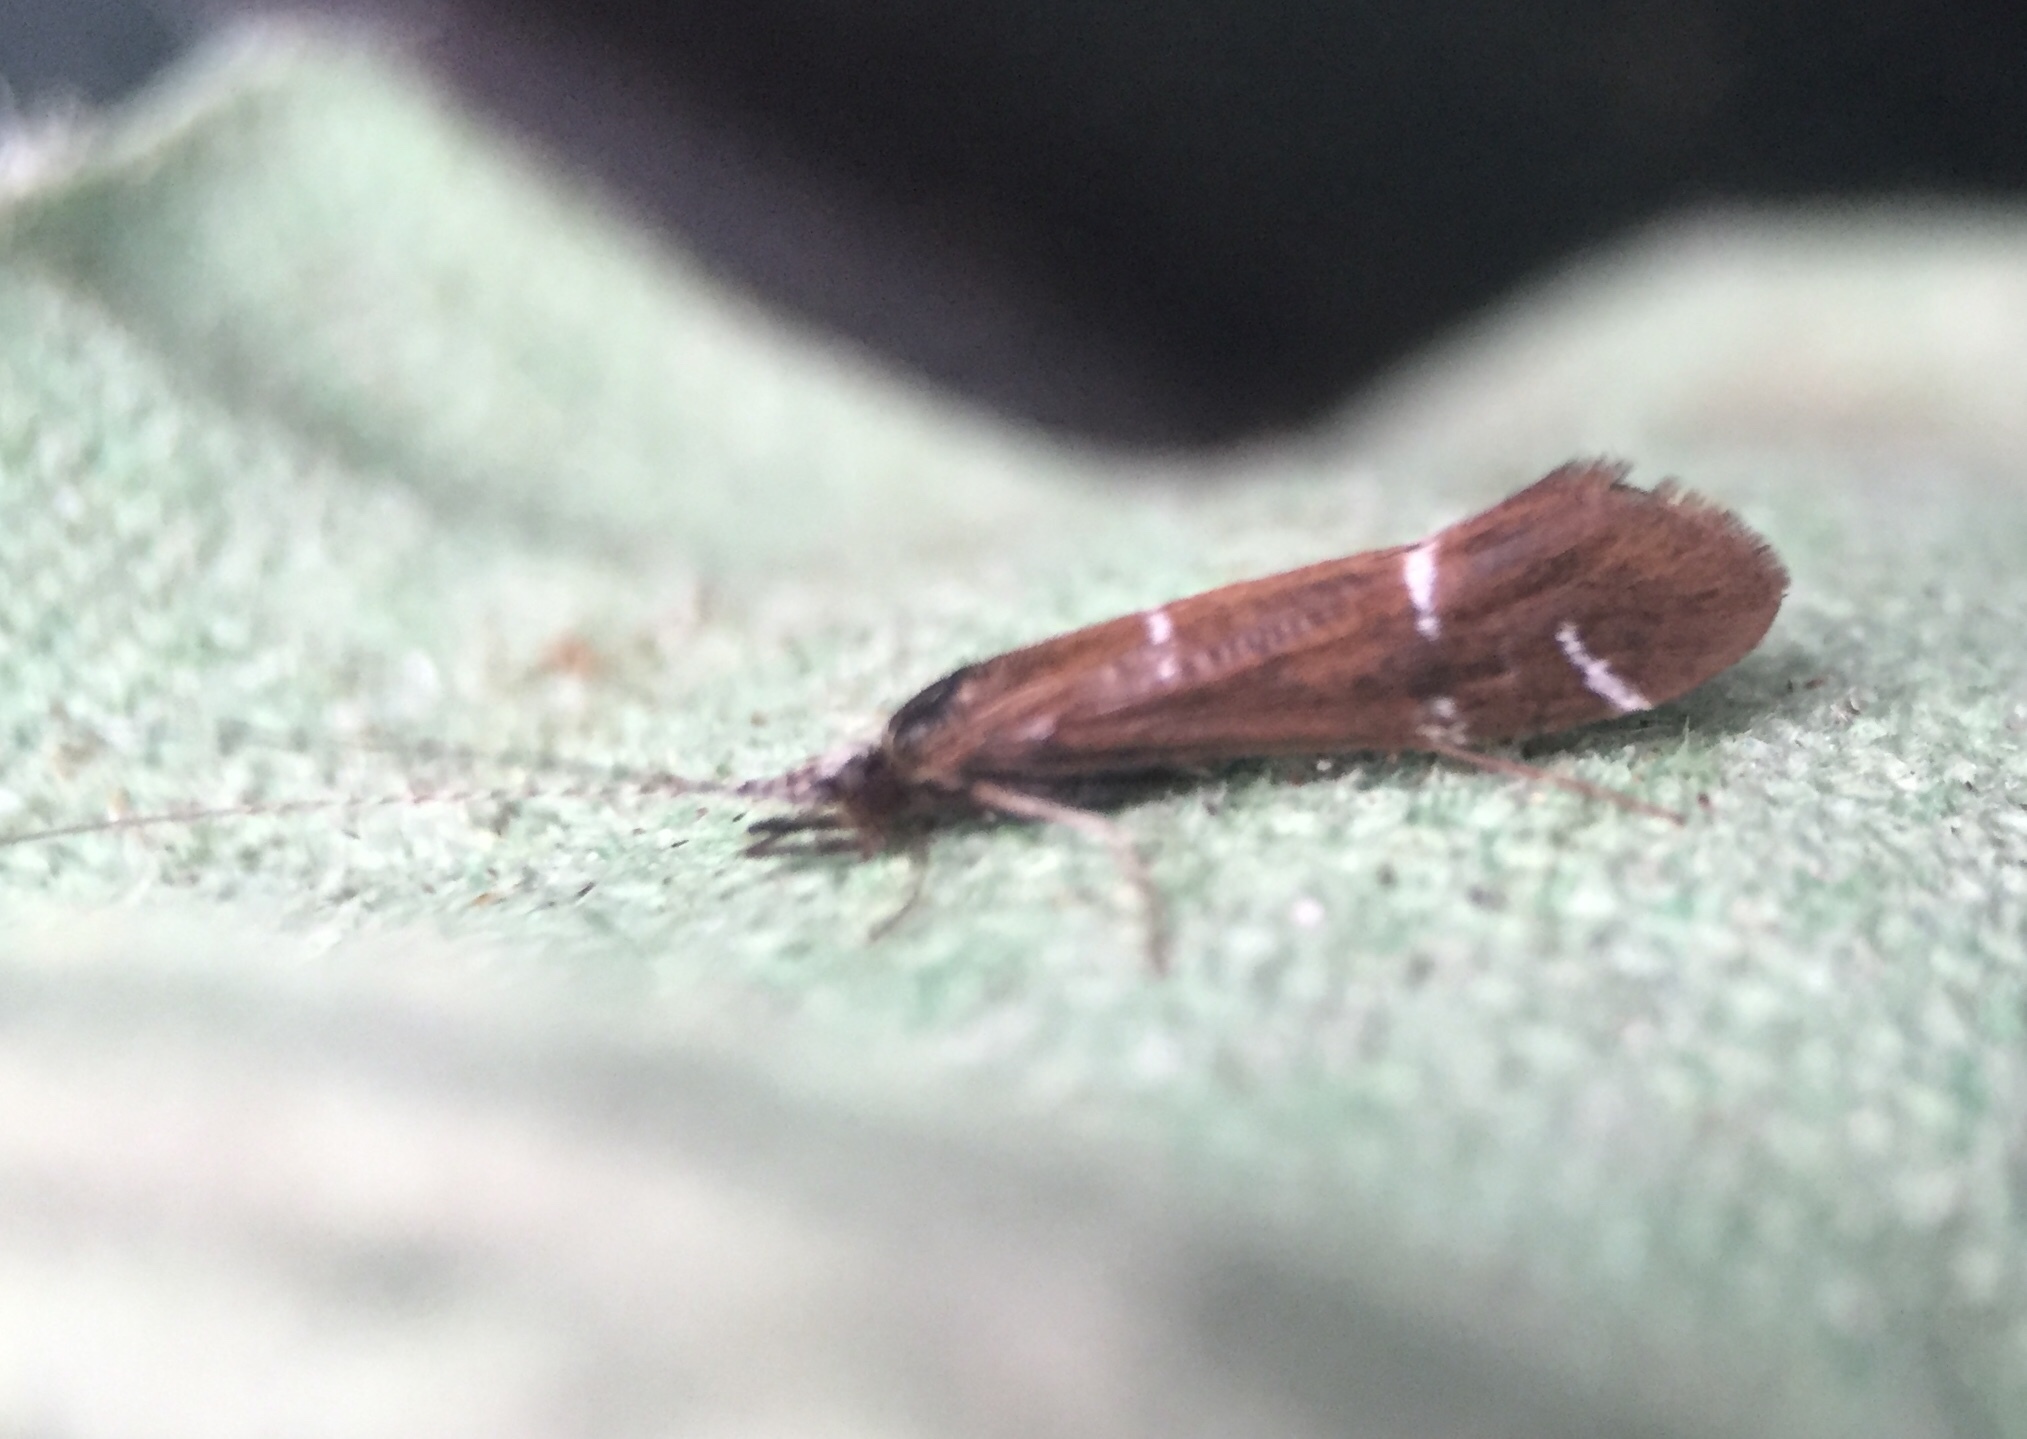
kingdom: Animalia
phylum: Arthropoda
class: Insecta
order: Trichoptera
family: Leptoceridae
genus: Athripsodes
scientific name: Athripsodes albifrons
